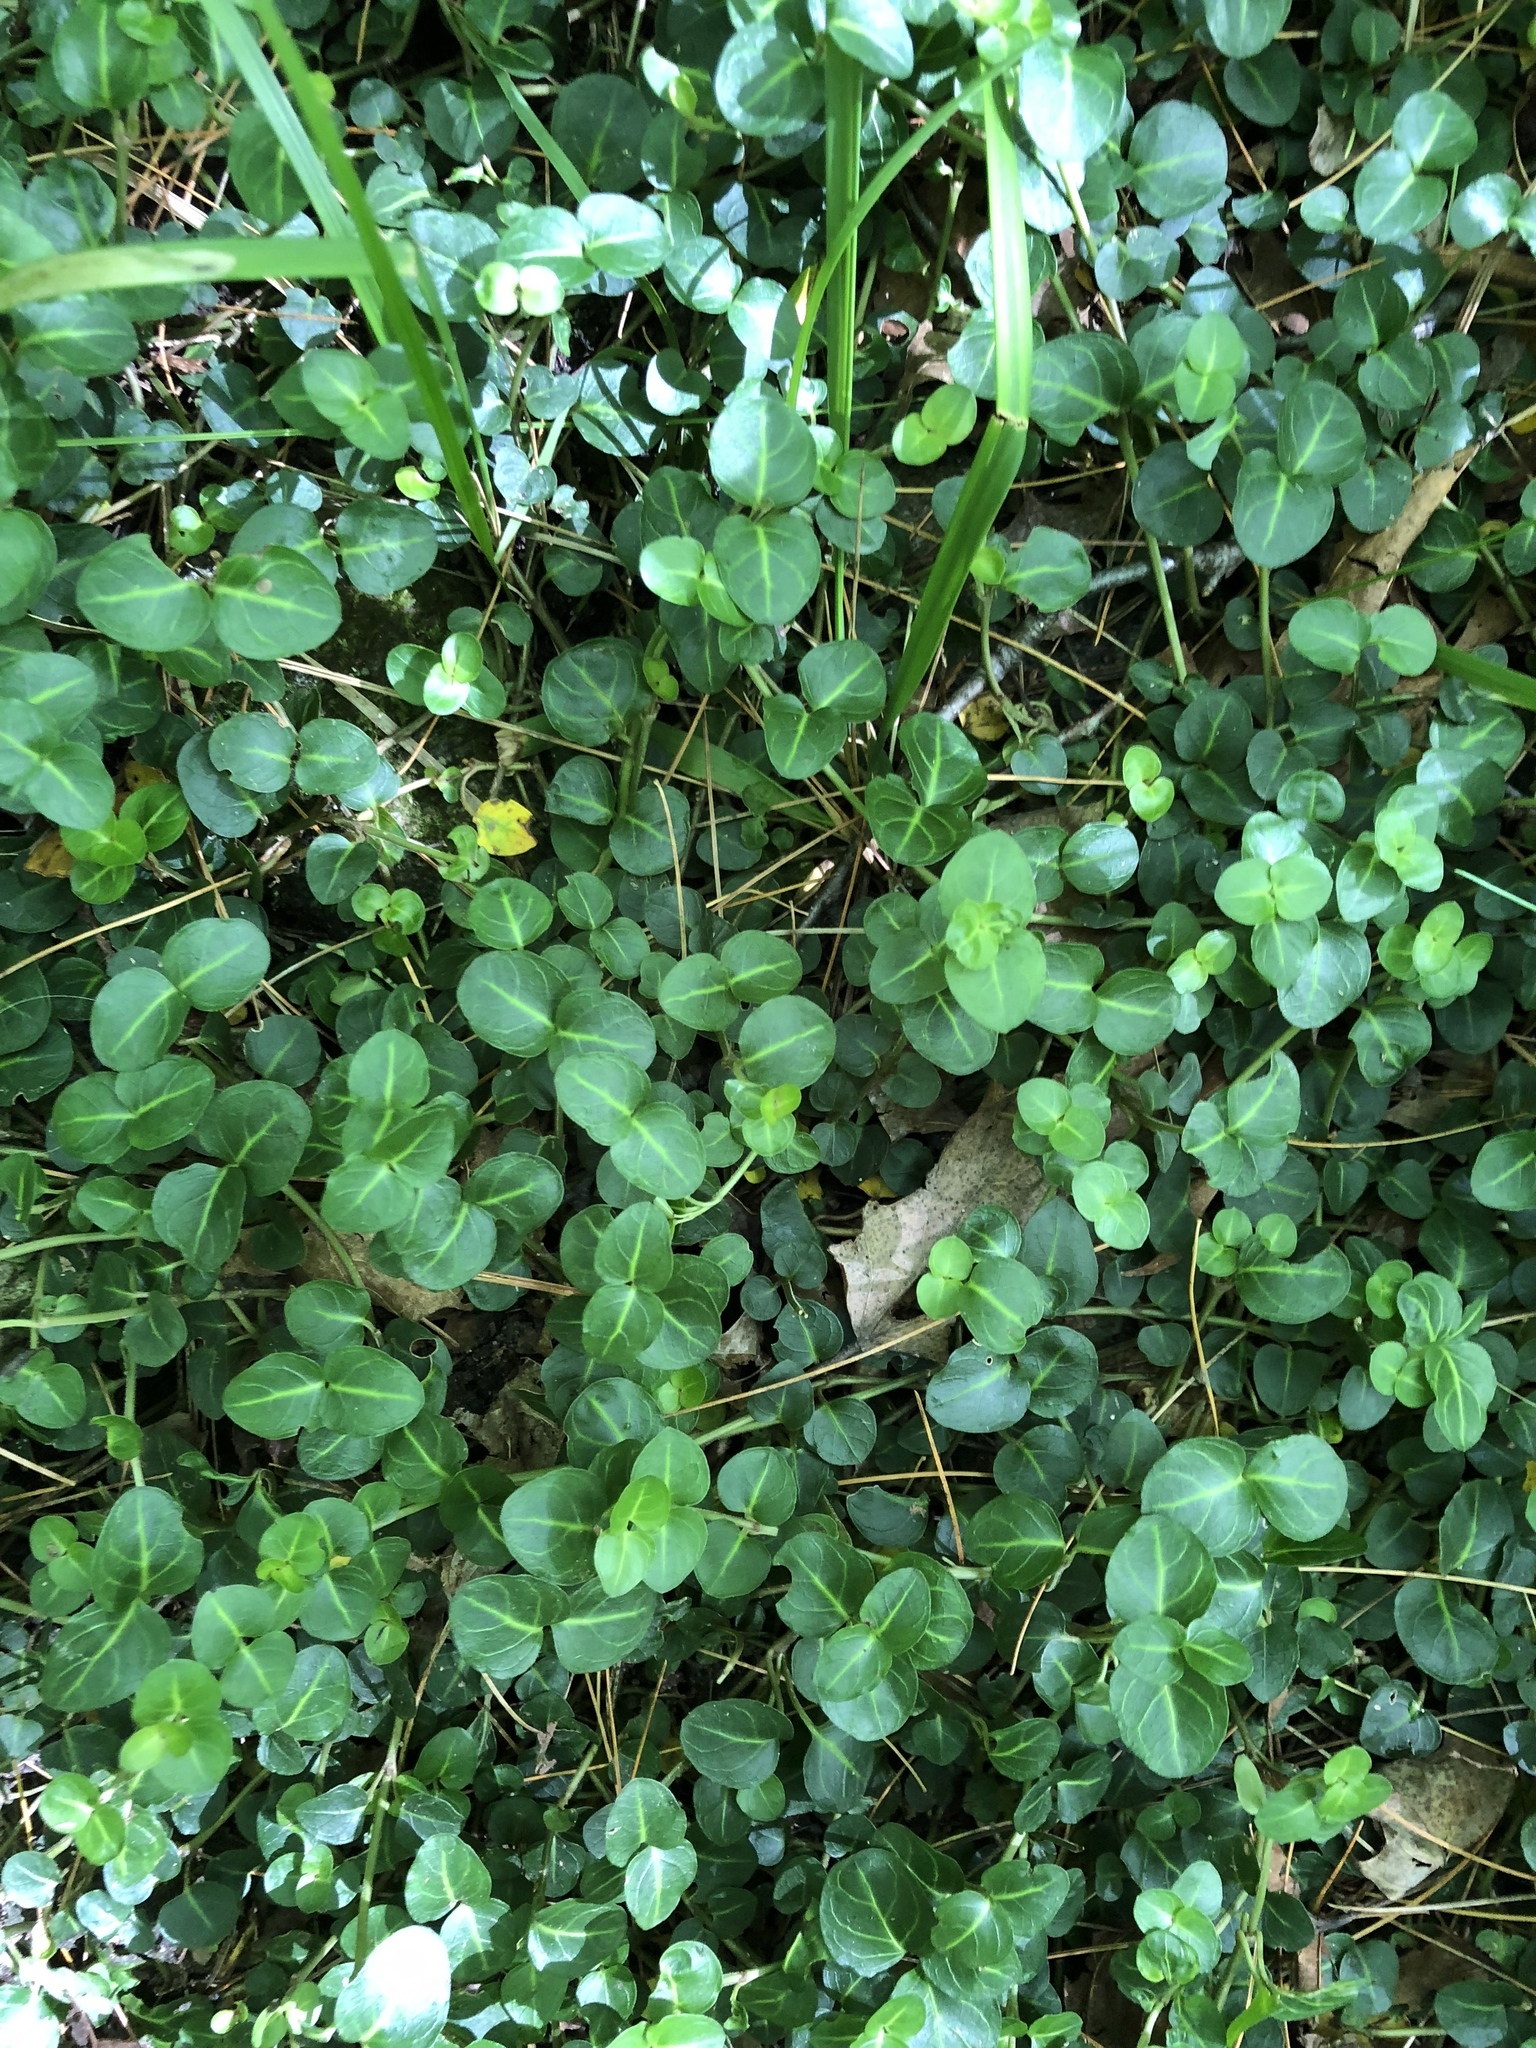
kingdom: Plantae
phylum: Tracheophyta
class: Magnoliopsida
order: Gentianales
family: Rubiaceae
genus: Mitchella
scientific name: Mitchella repens
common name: Partridge-berry
